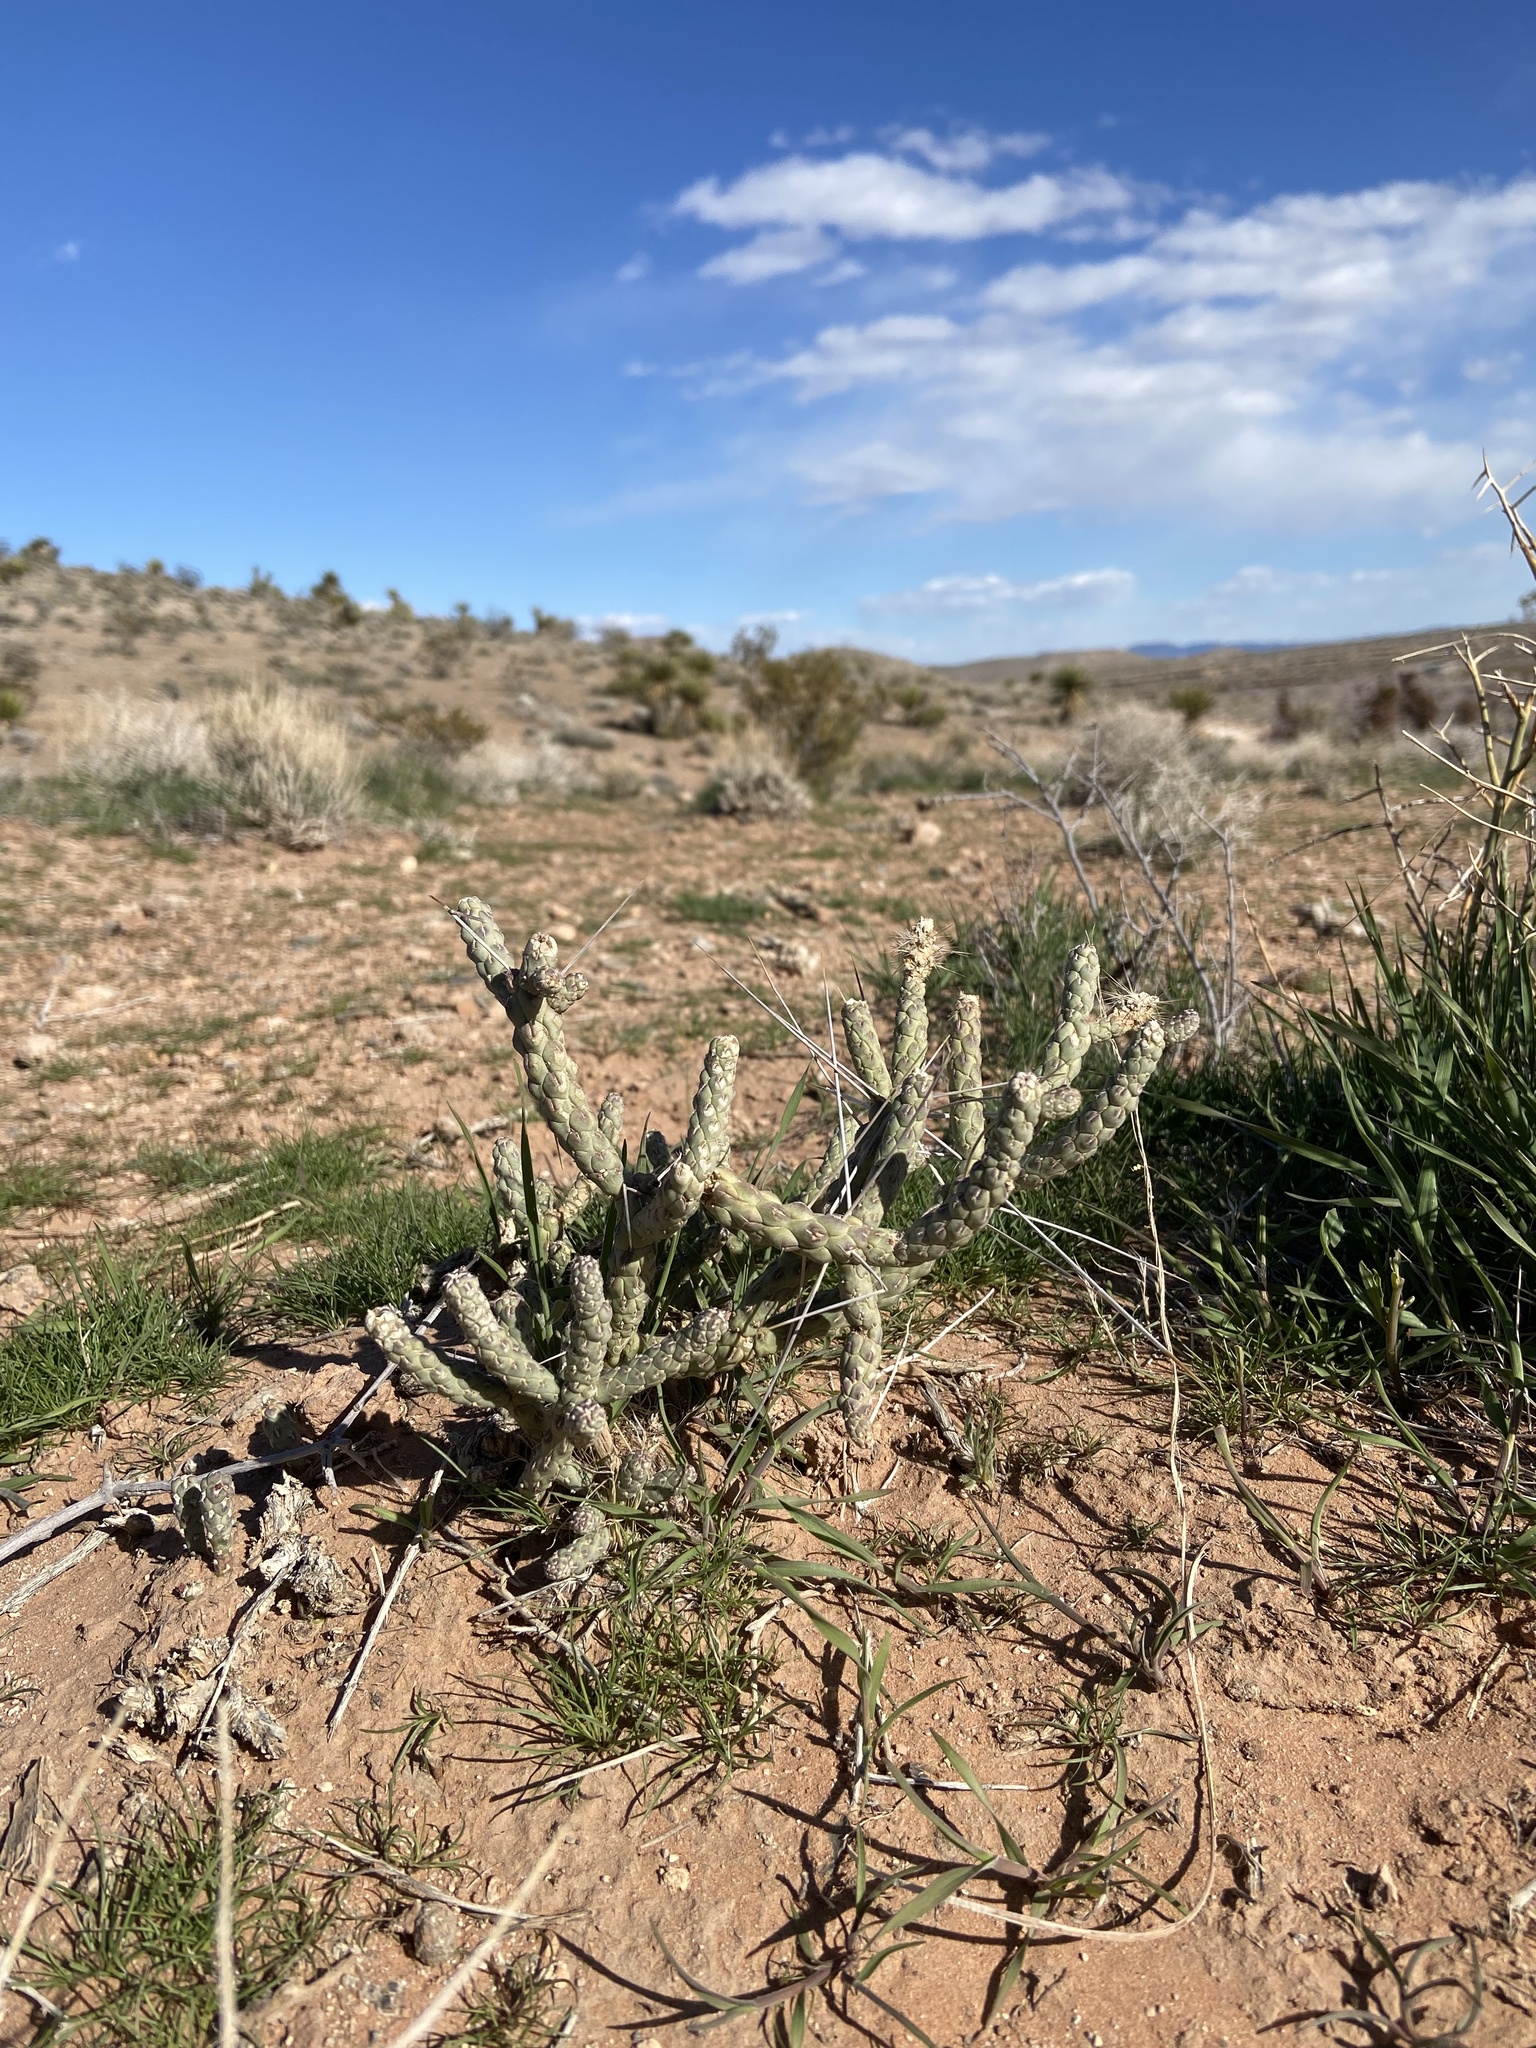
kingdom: Plantae
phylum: Tracheophyta
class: Magnoliopsida
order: Caryophyllales
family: Cactaceae
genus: Cylindropuntia
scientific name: Cylindropuntia ramosissima
